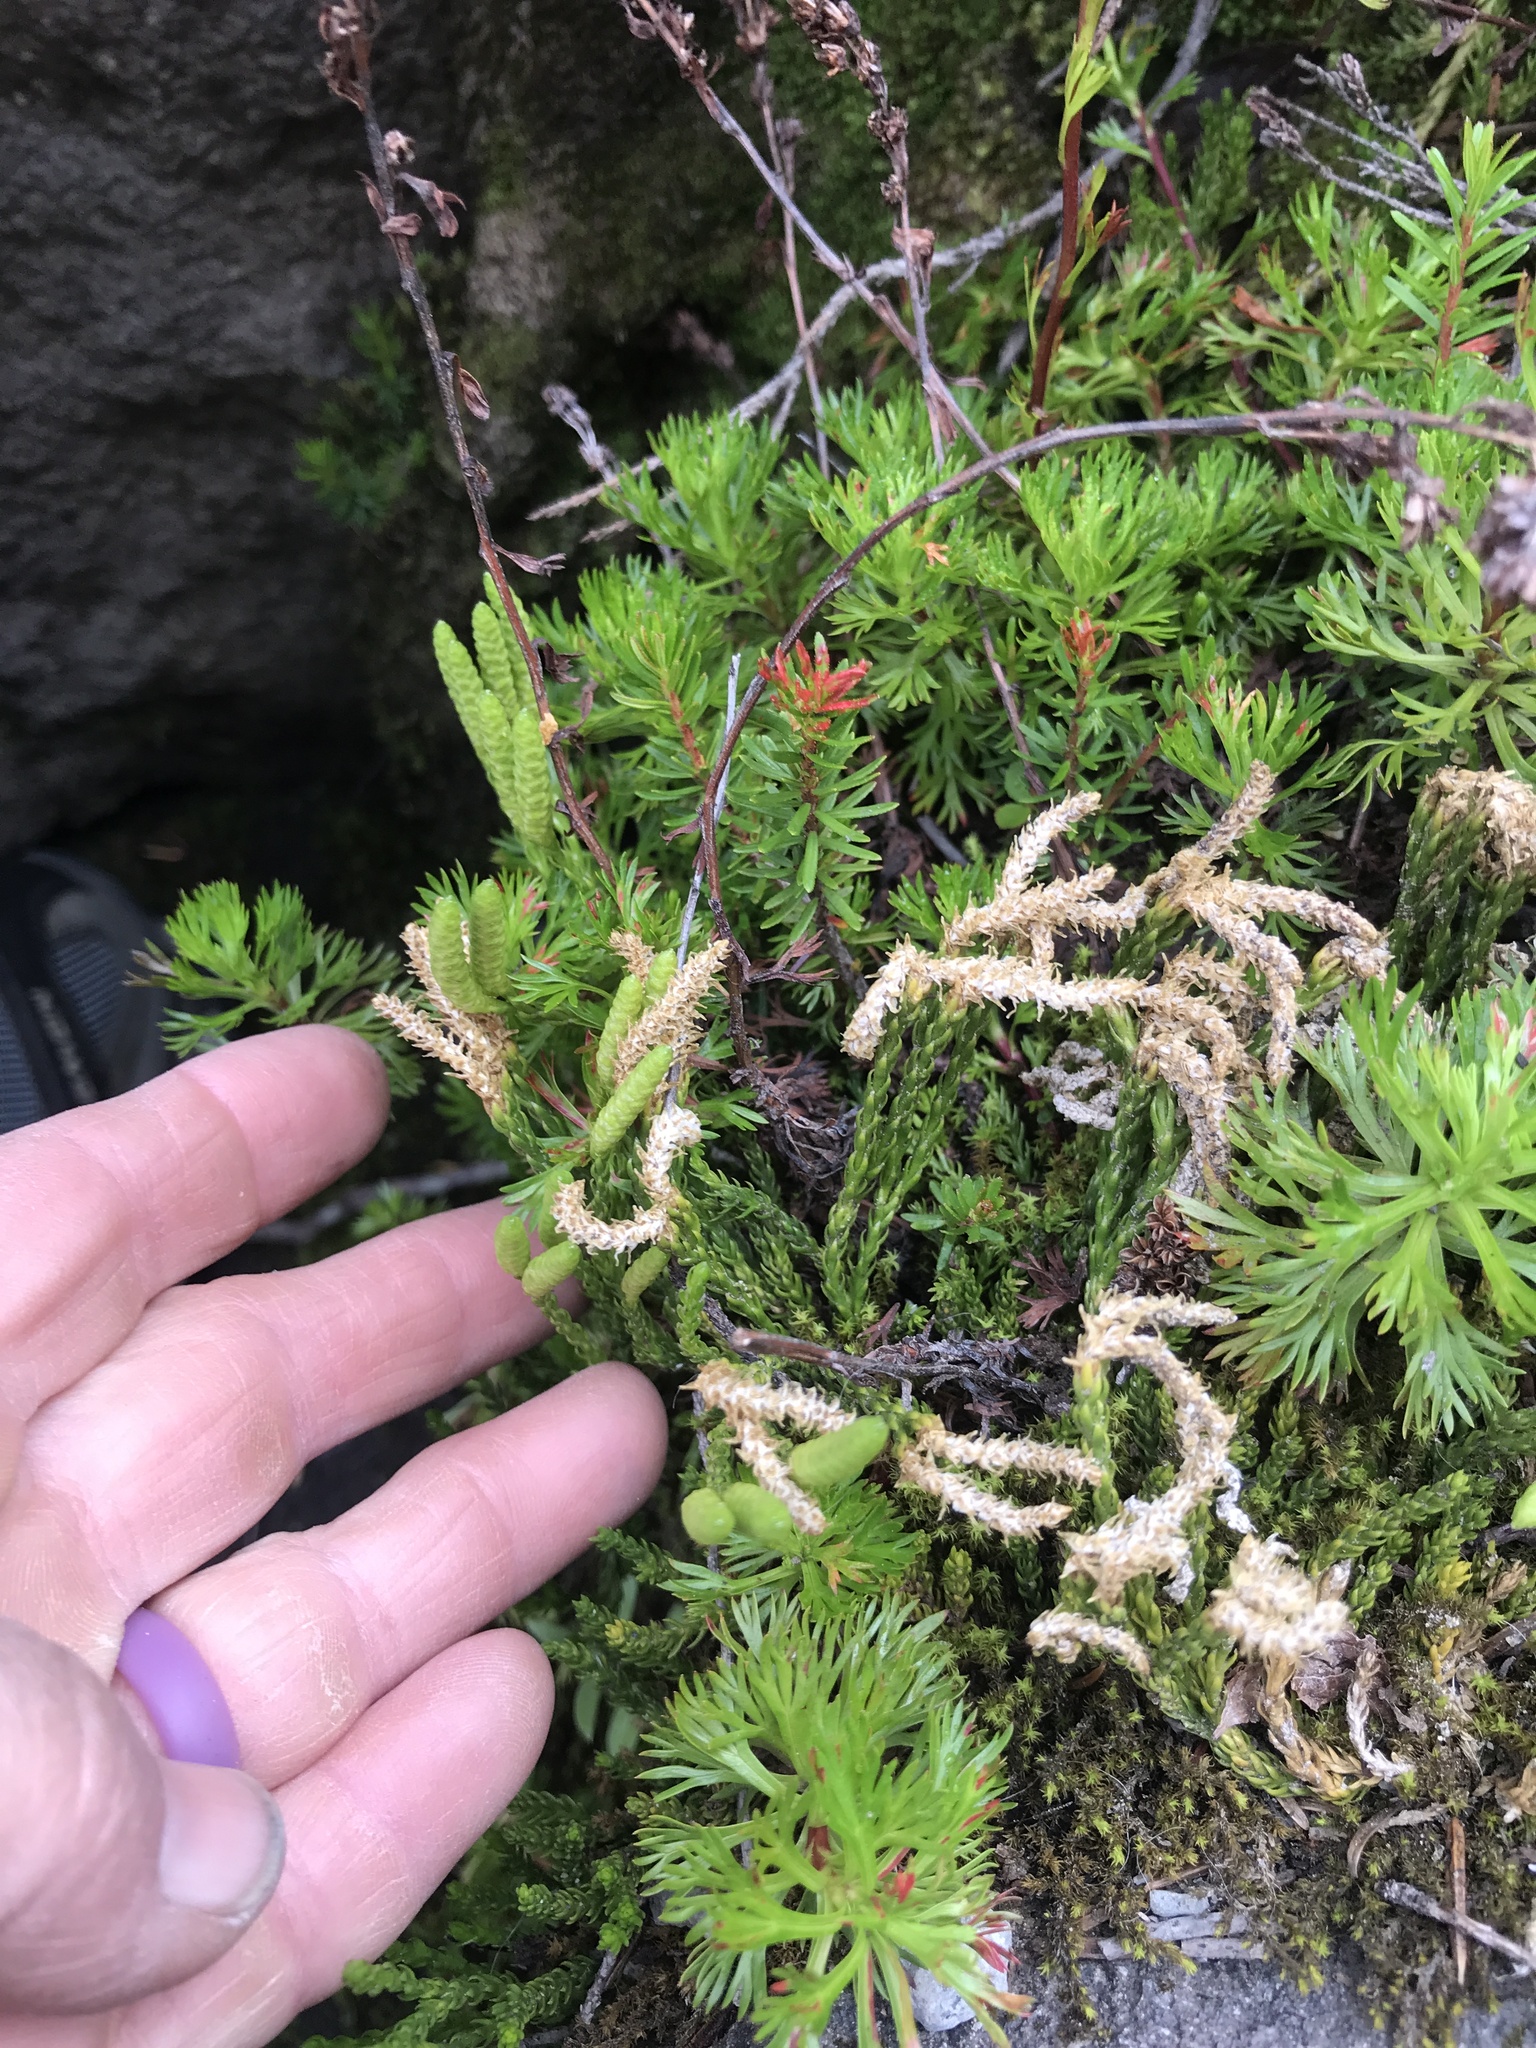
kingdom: Plantae
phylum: Tracheophyta
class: Lycopodiopsida
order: Lycopodiales
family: Lycopodiaceae
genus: Diphasiastrum
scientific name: Diphasiastrum sitchense
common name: Alaska clubmoss
